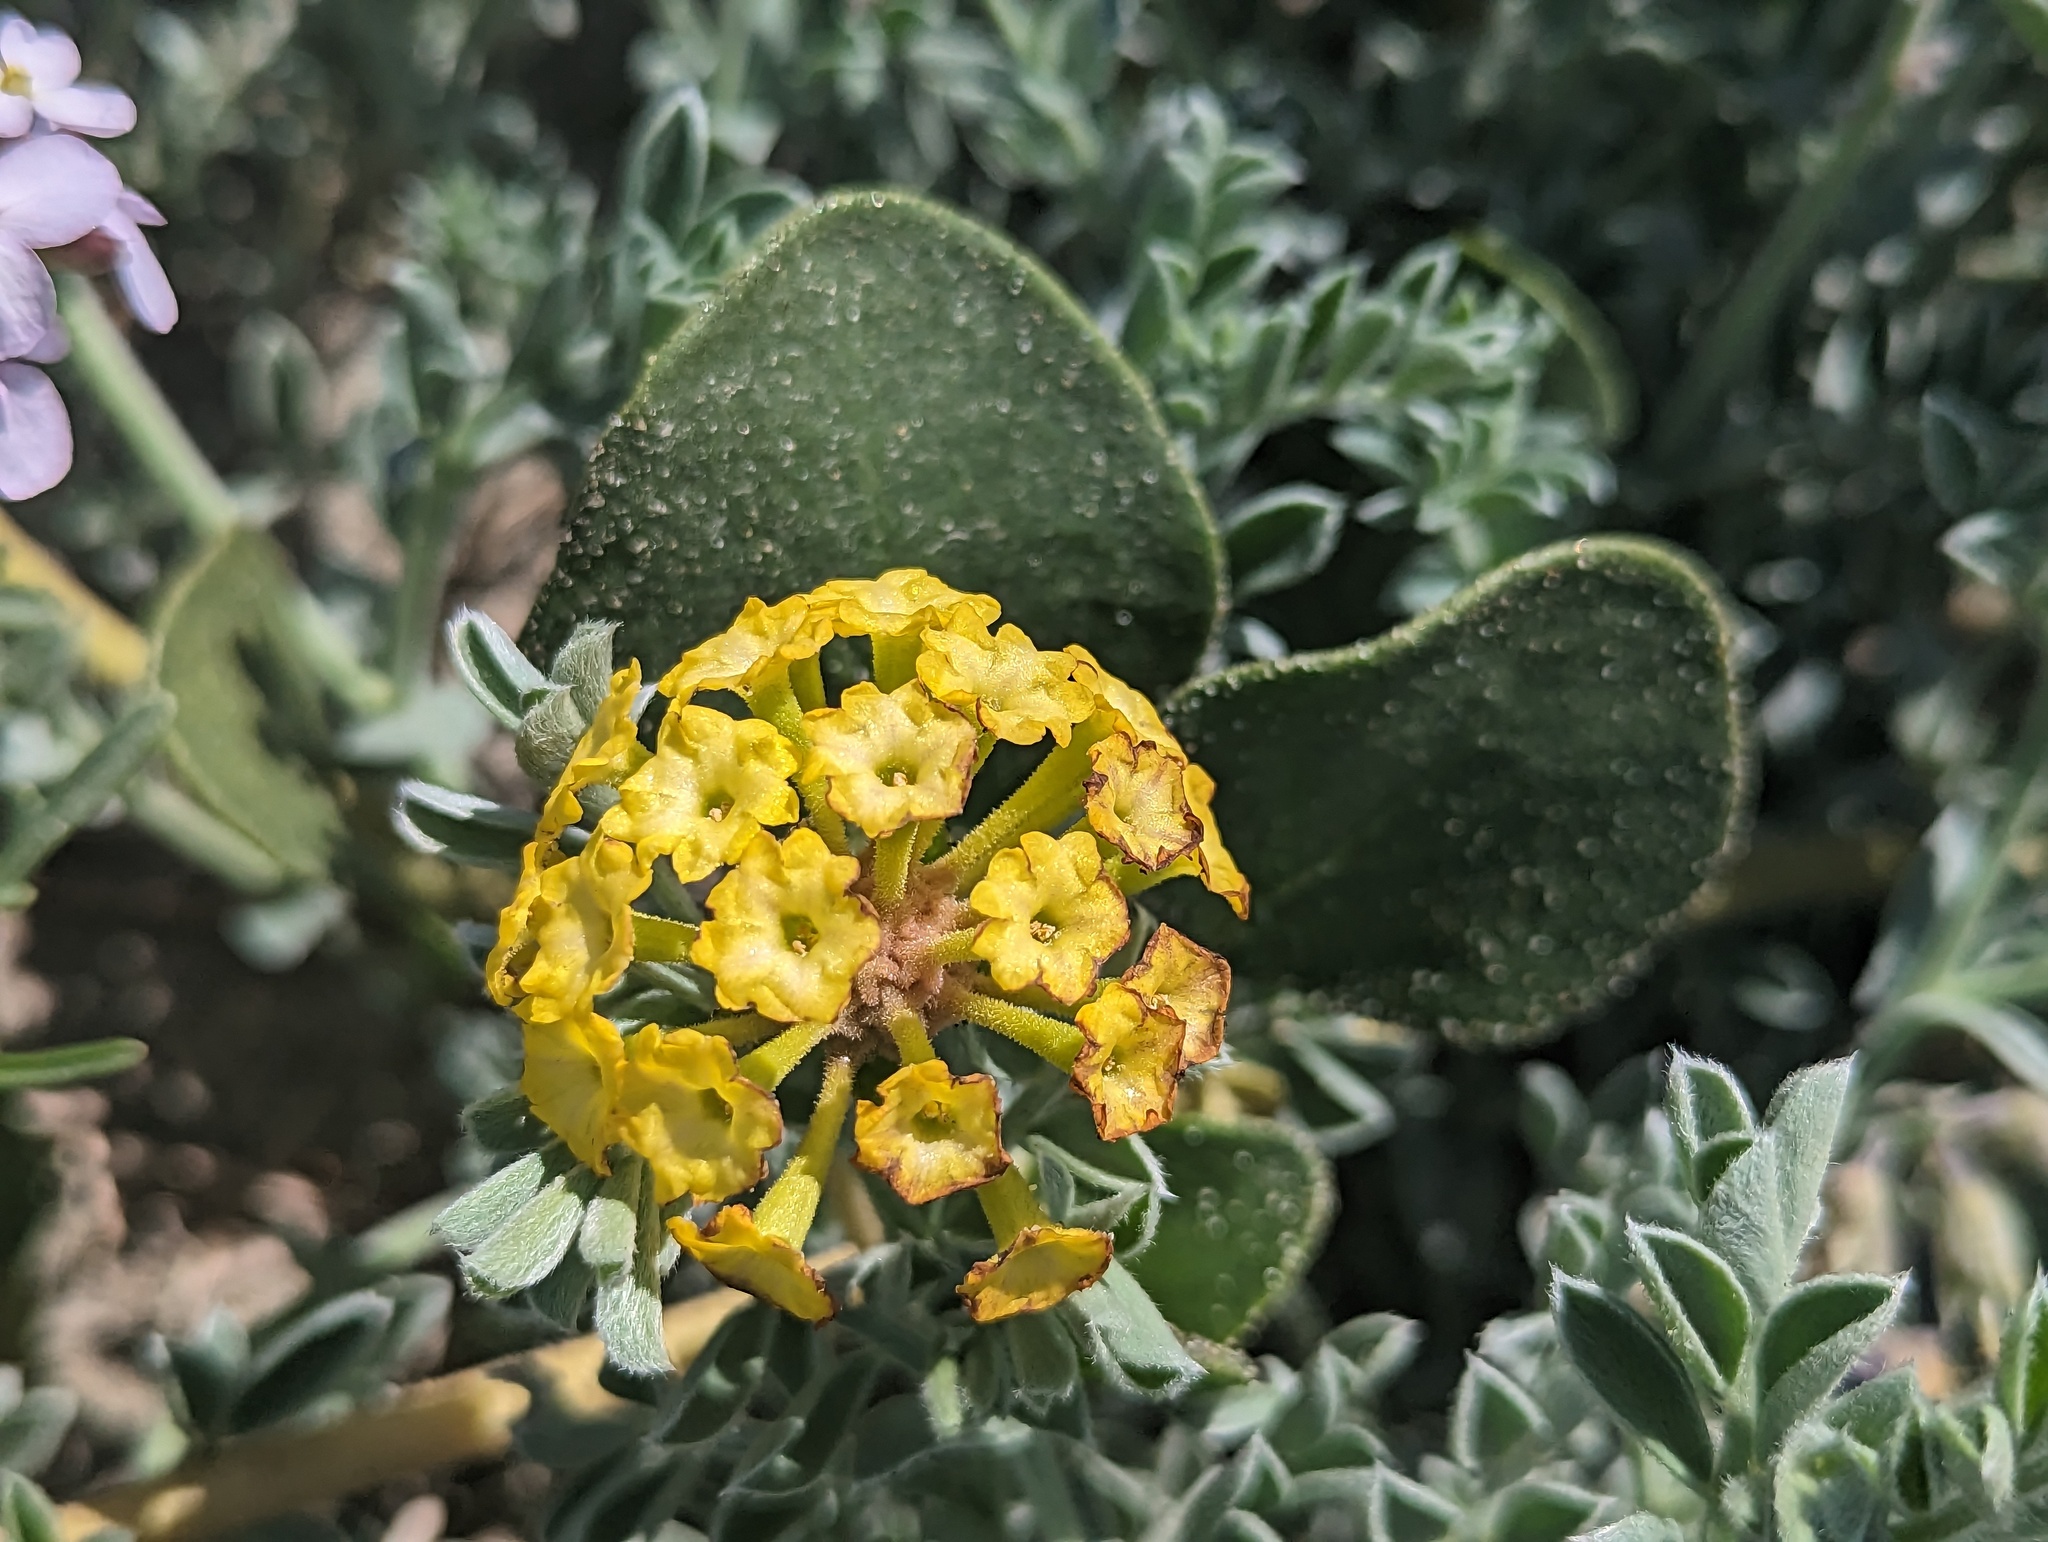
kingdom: Plantae
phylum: Tracheophyta
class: Magnoliopsida
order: Caryophyllales
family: Nyctaginaceae
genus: Abronia
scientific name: Abronia latifolia
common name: Yellow sand-verbena
